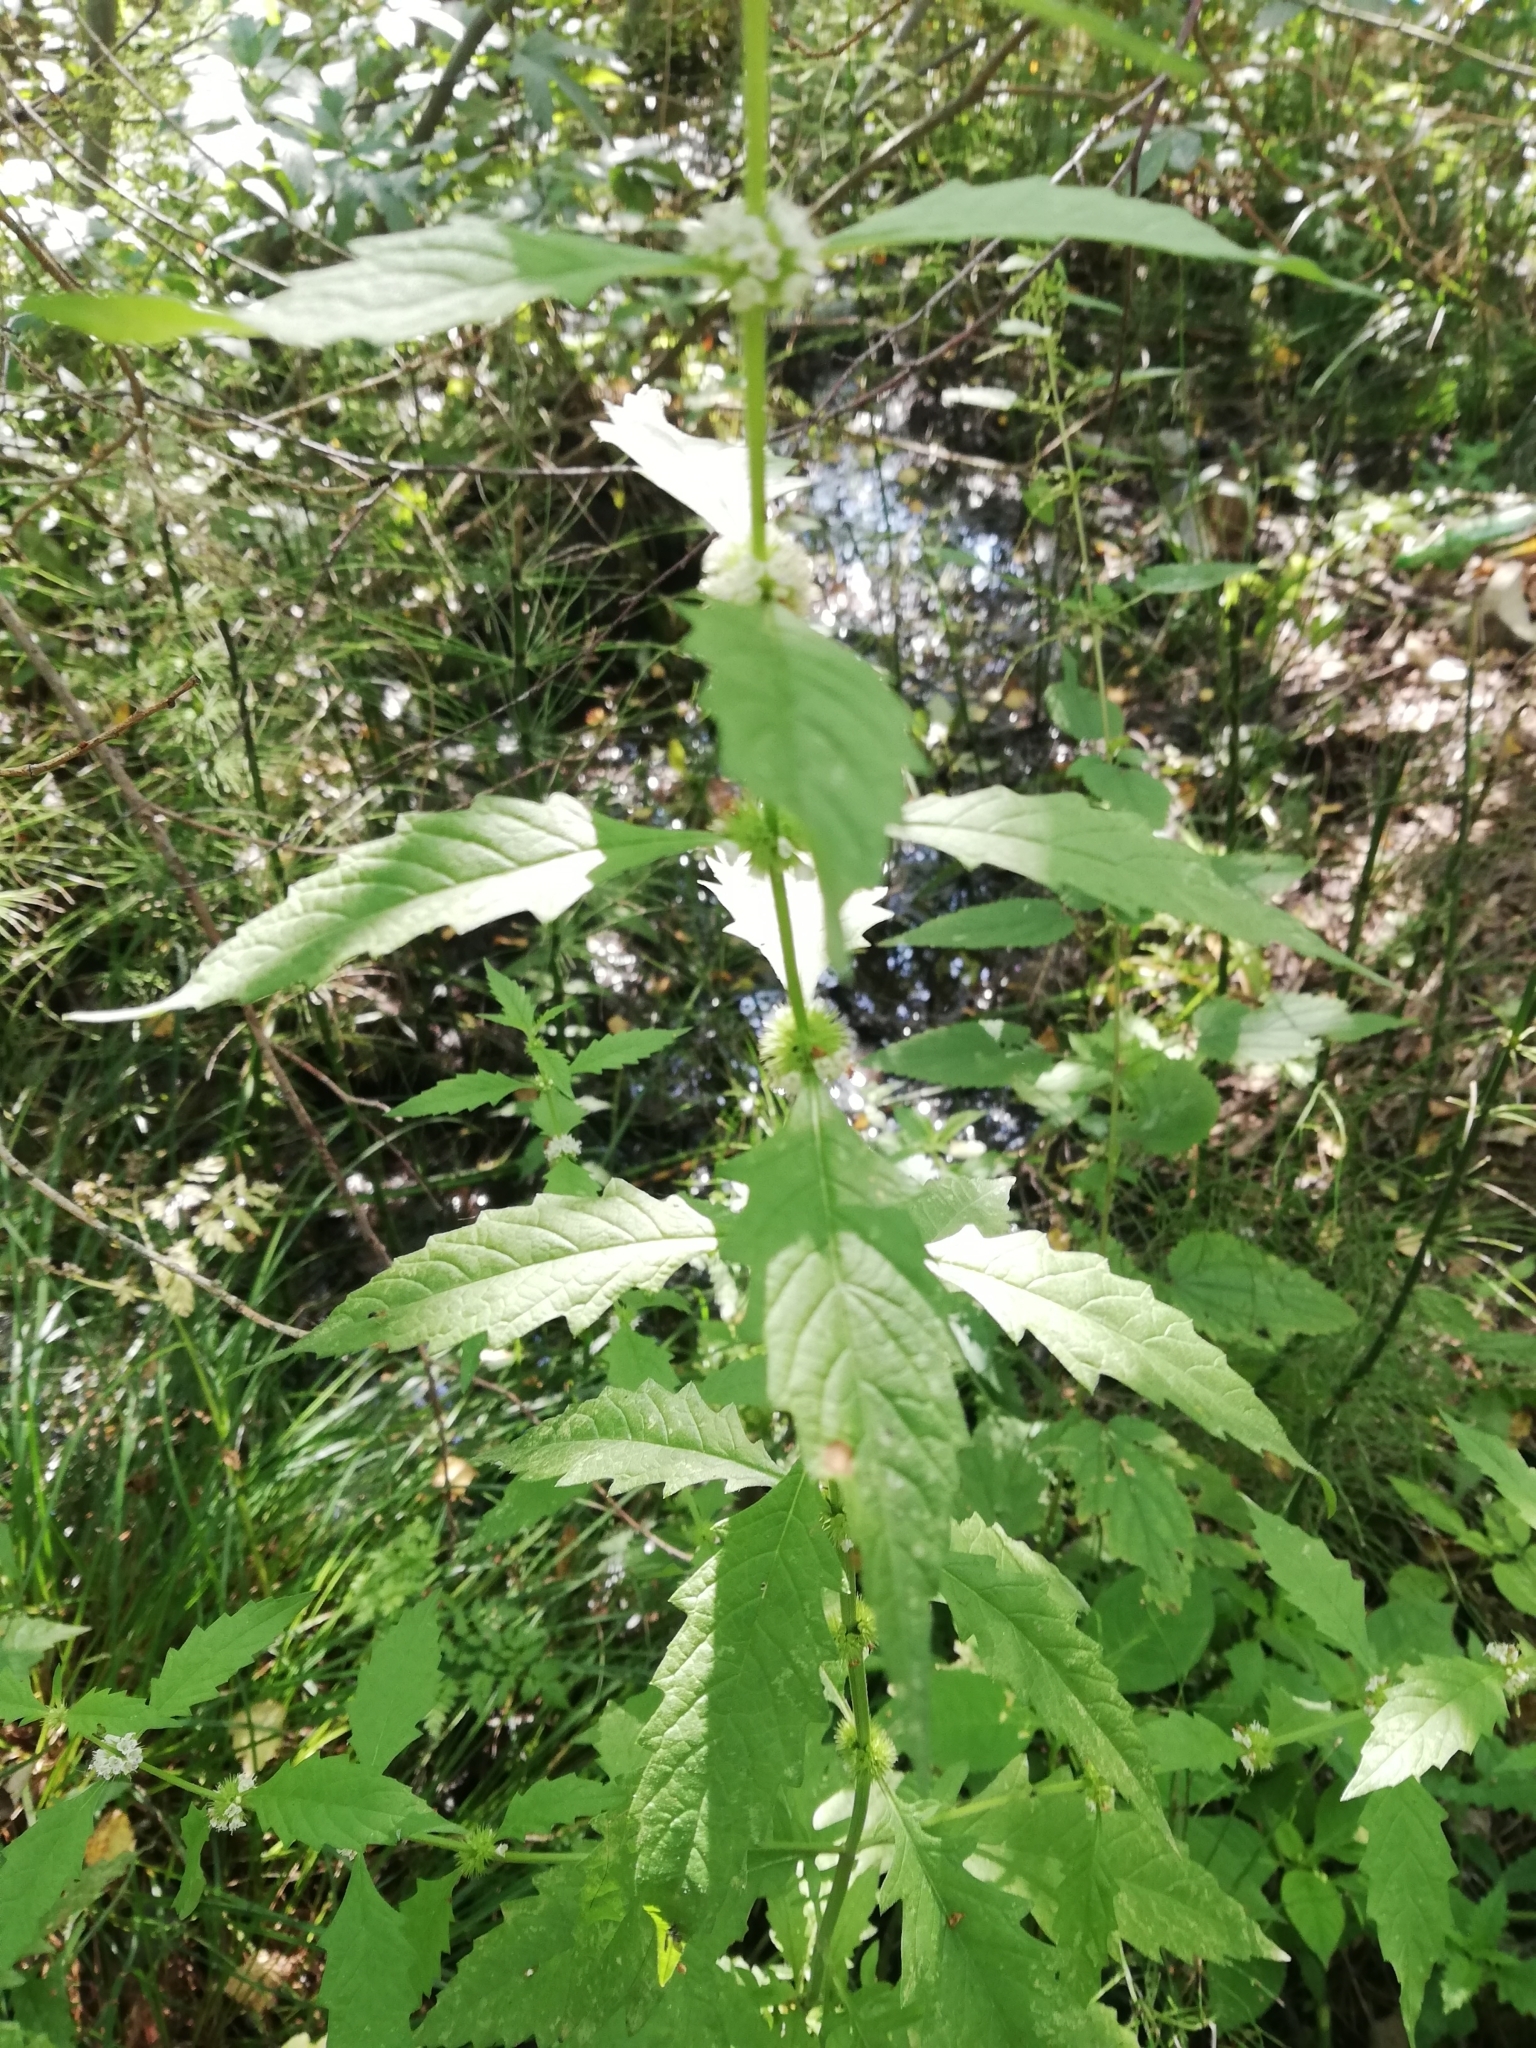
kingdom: Plantae
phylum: Tracheophyta
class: Magnoliopsida
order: Lamiales
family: Lamiaceae
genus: Lycopus
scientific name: Lycopus europaeus
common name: European bugleweed
